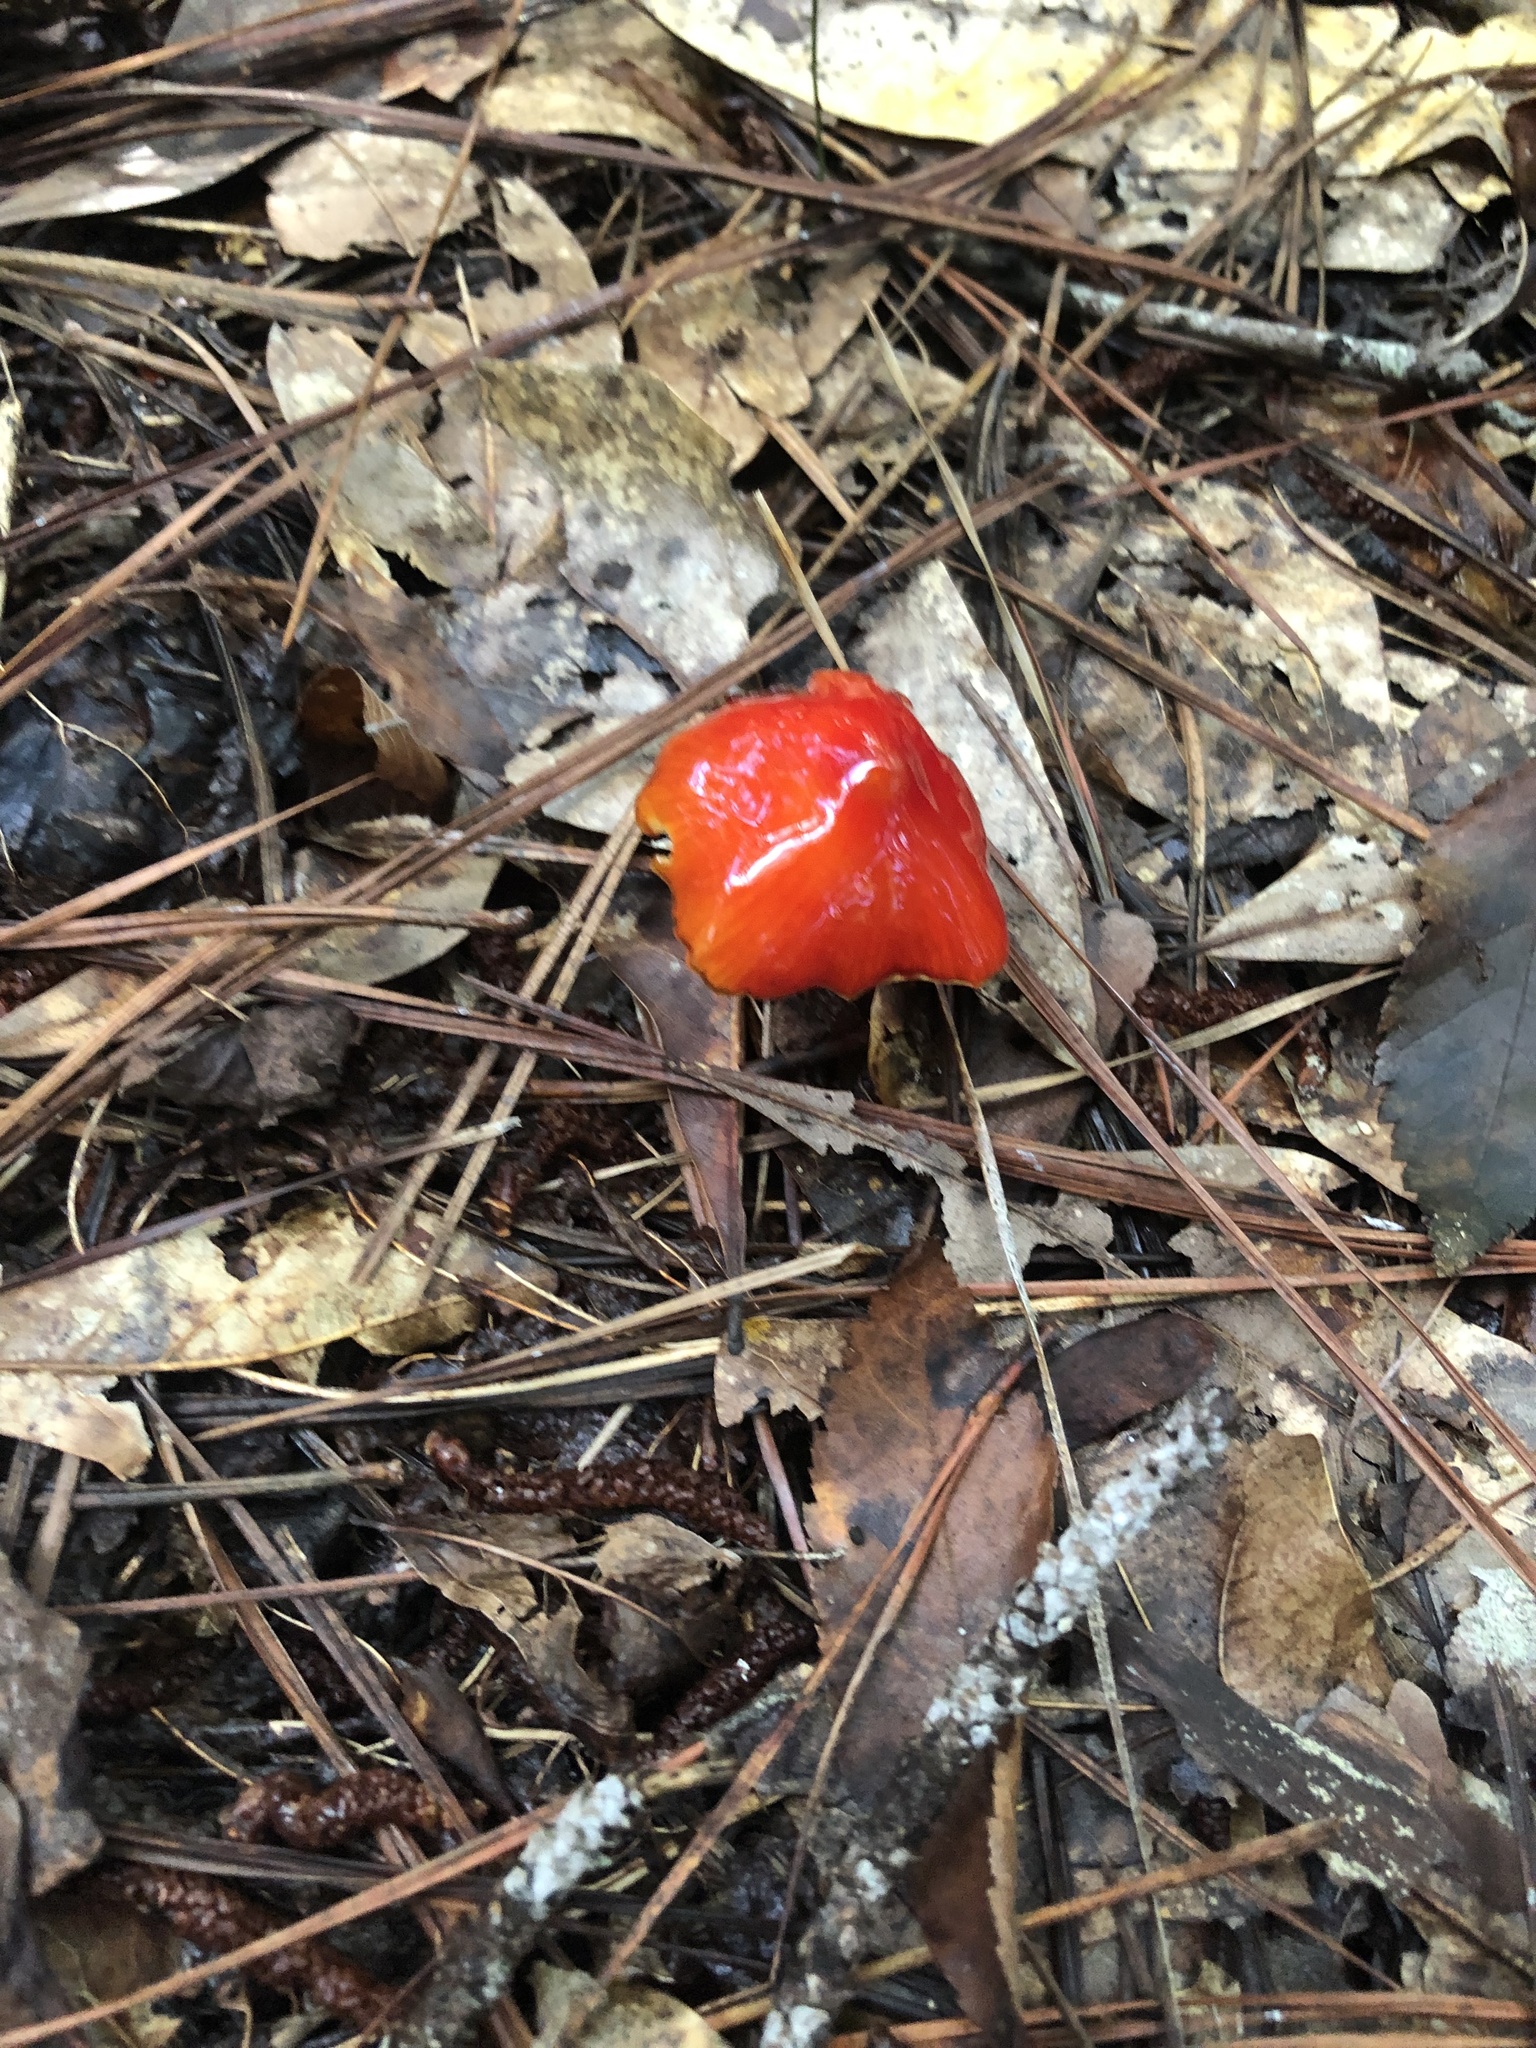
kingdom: Fungi
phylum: Basidiomycota
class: Agaricomycetes
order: Agaricales
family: Hygrophoraceae
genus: Hygrocybe
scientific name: Hygrocybe conica
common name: Blackening wax-cap
